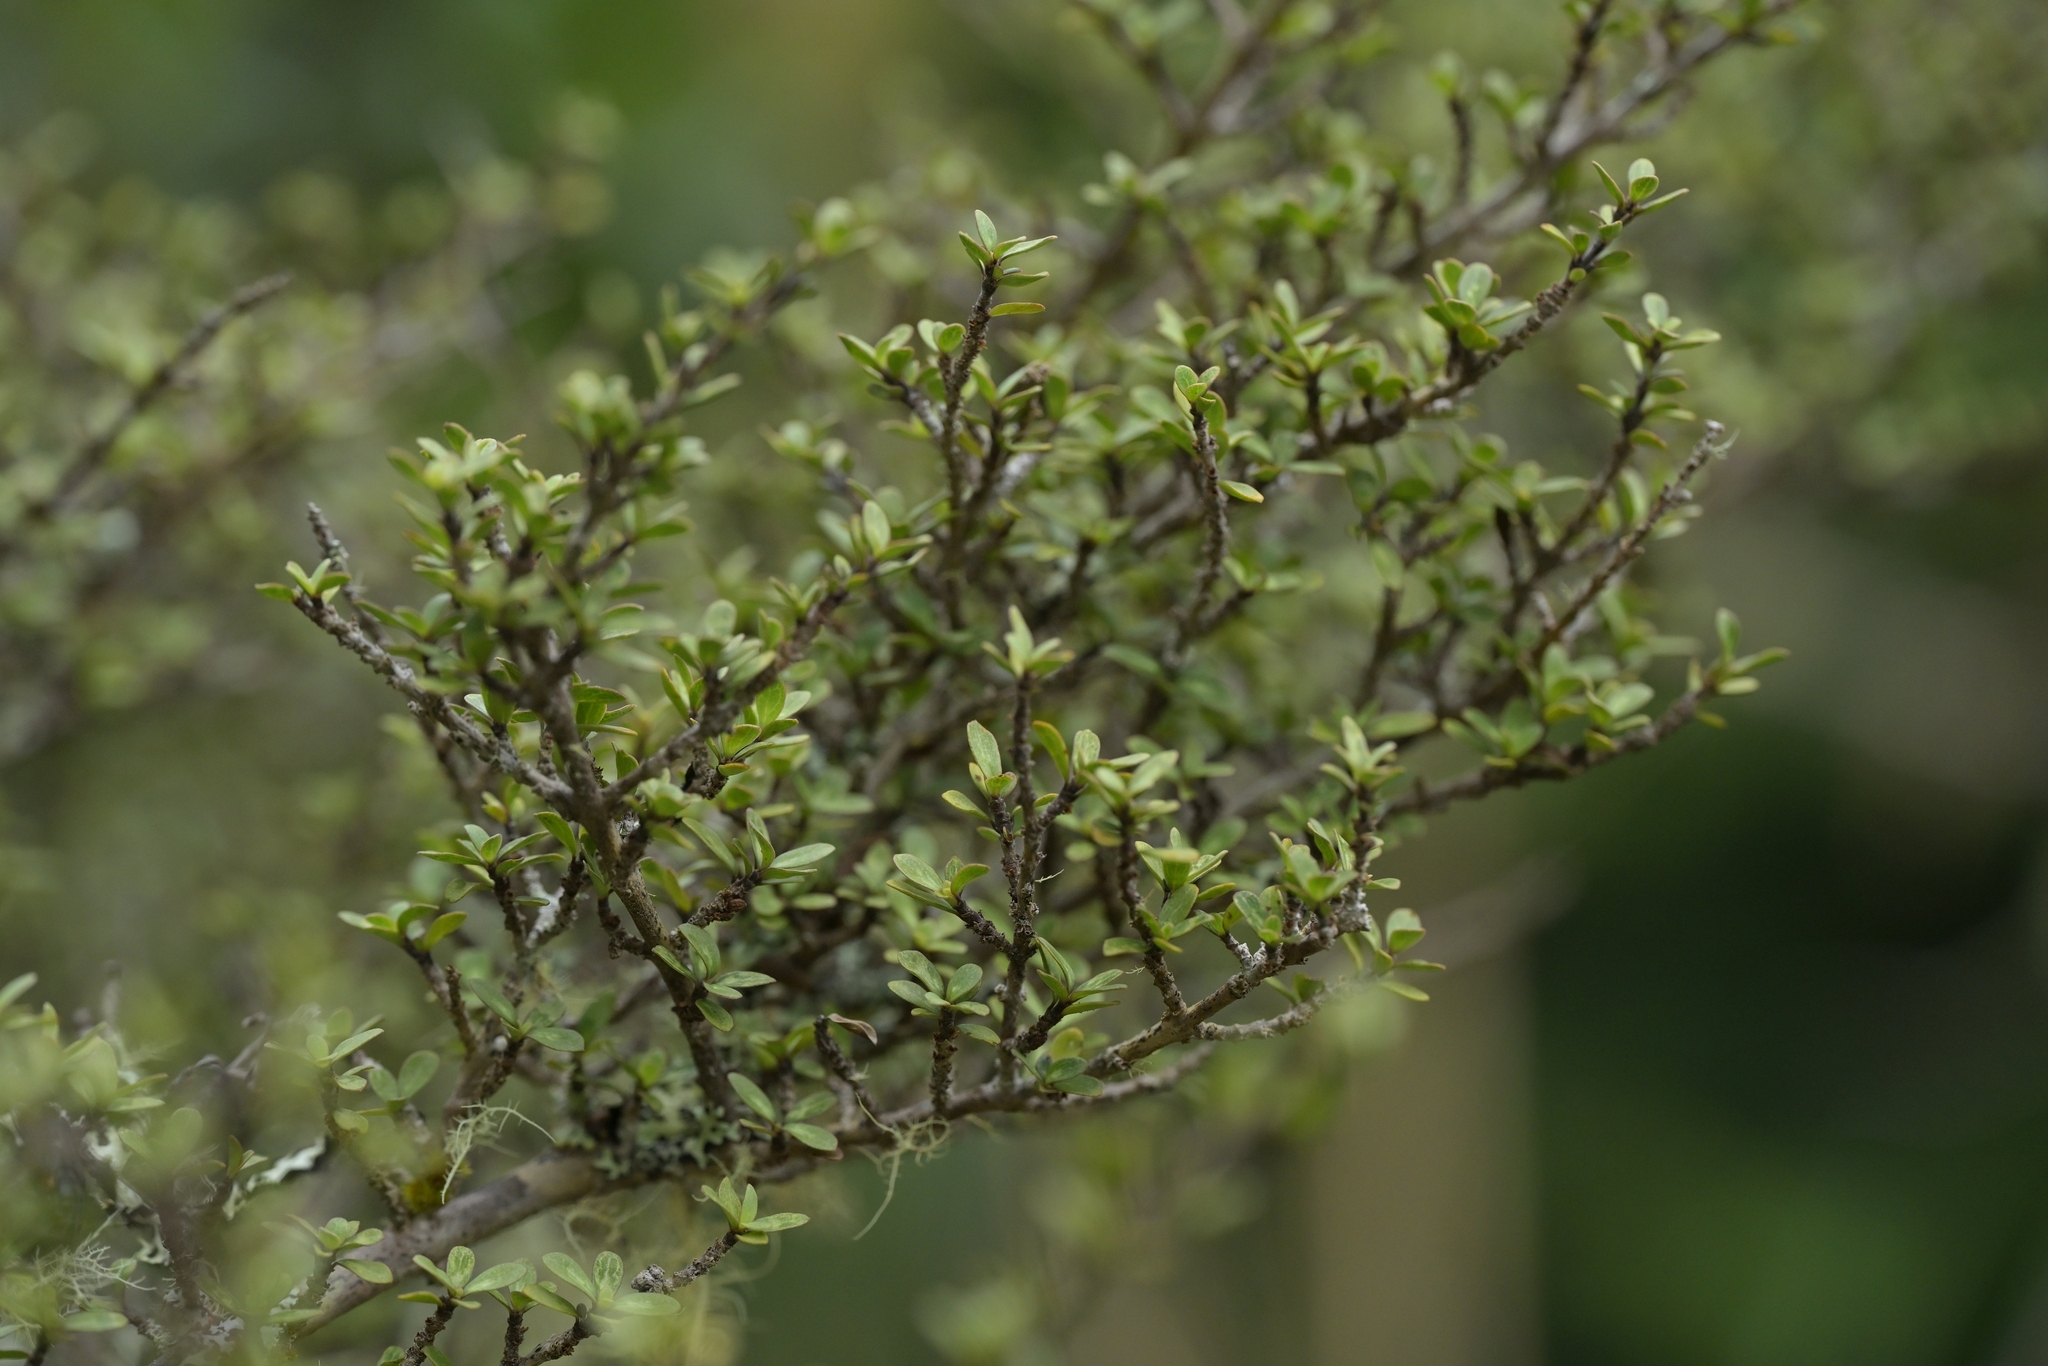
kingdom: Plantae
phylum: Tracheophyta
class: Magnoliopsida
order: Gentianales
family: Rubiaceae
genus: Coprosma
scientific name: Coprosma dumosa
